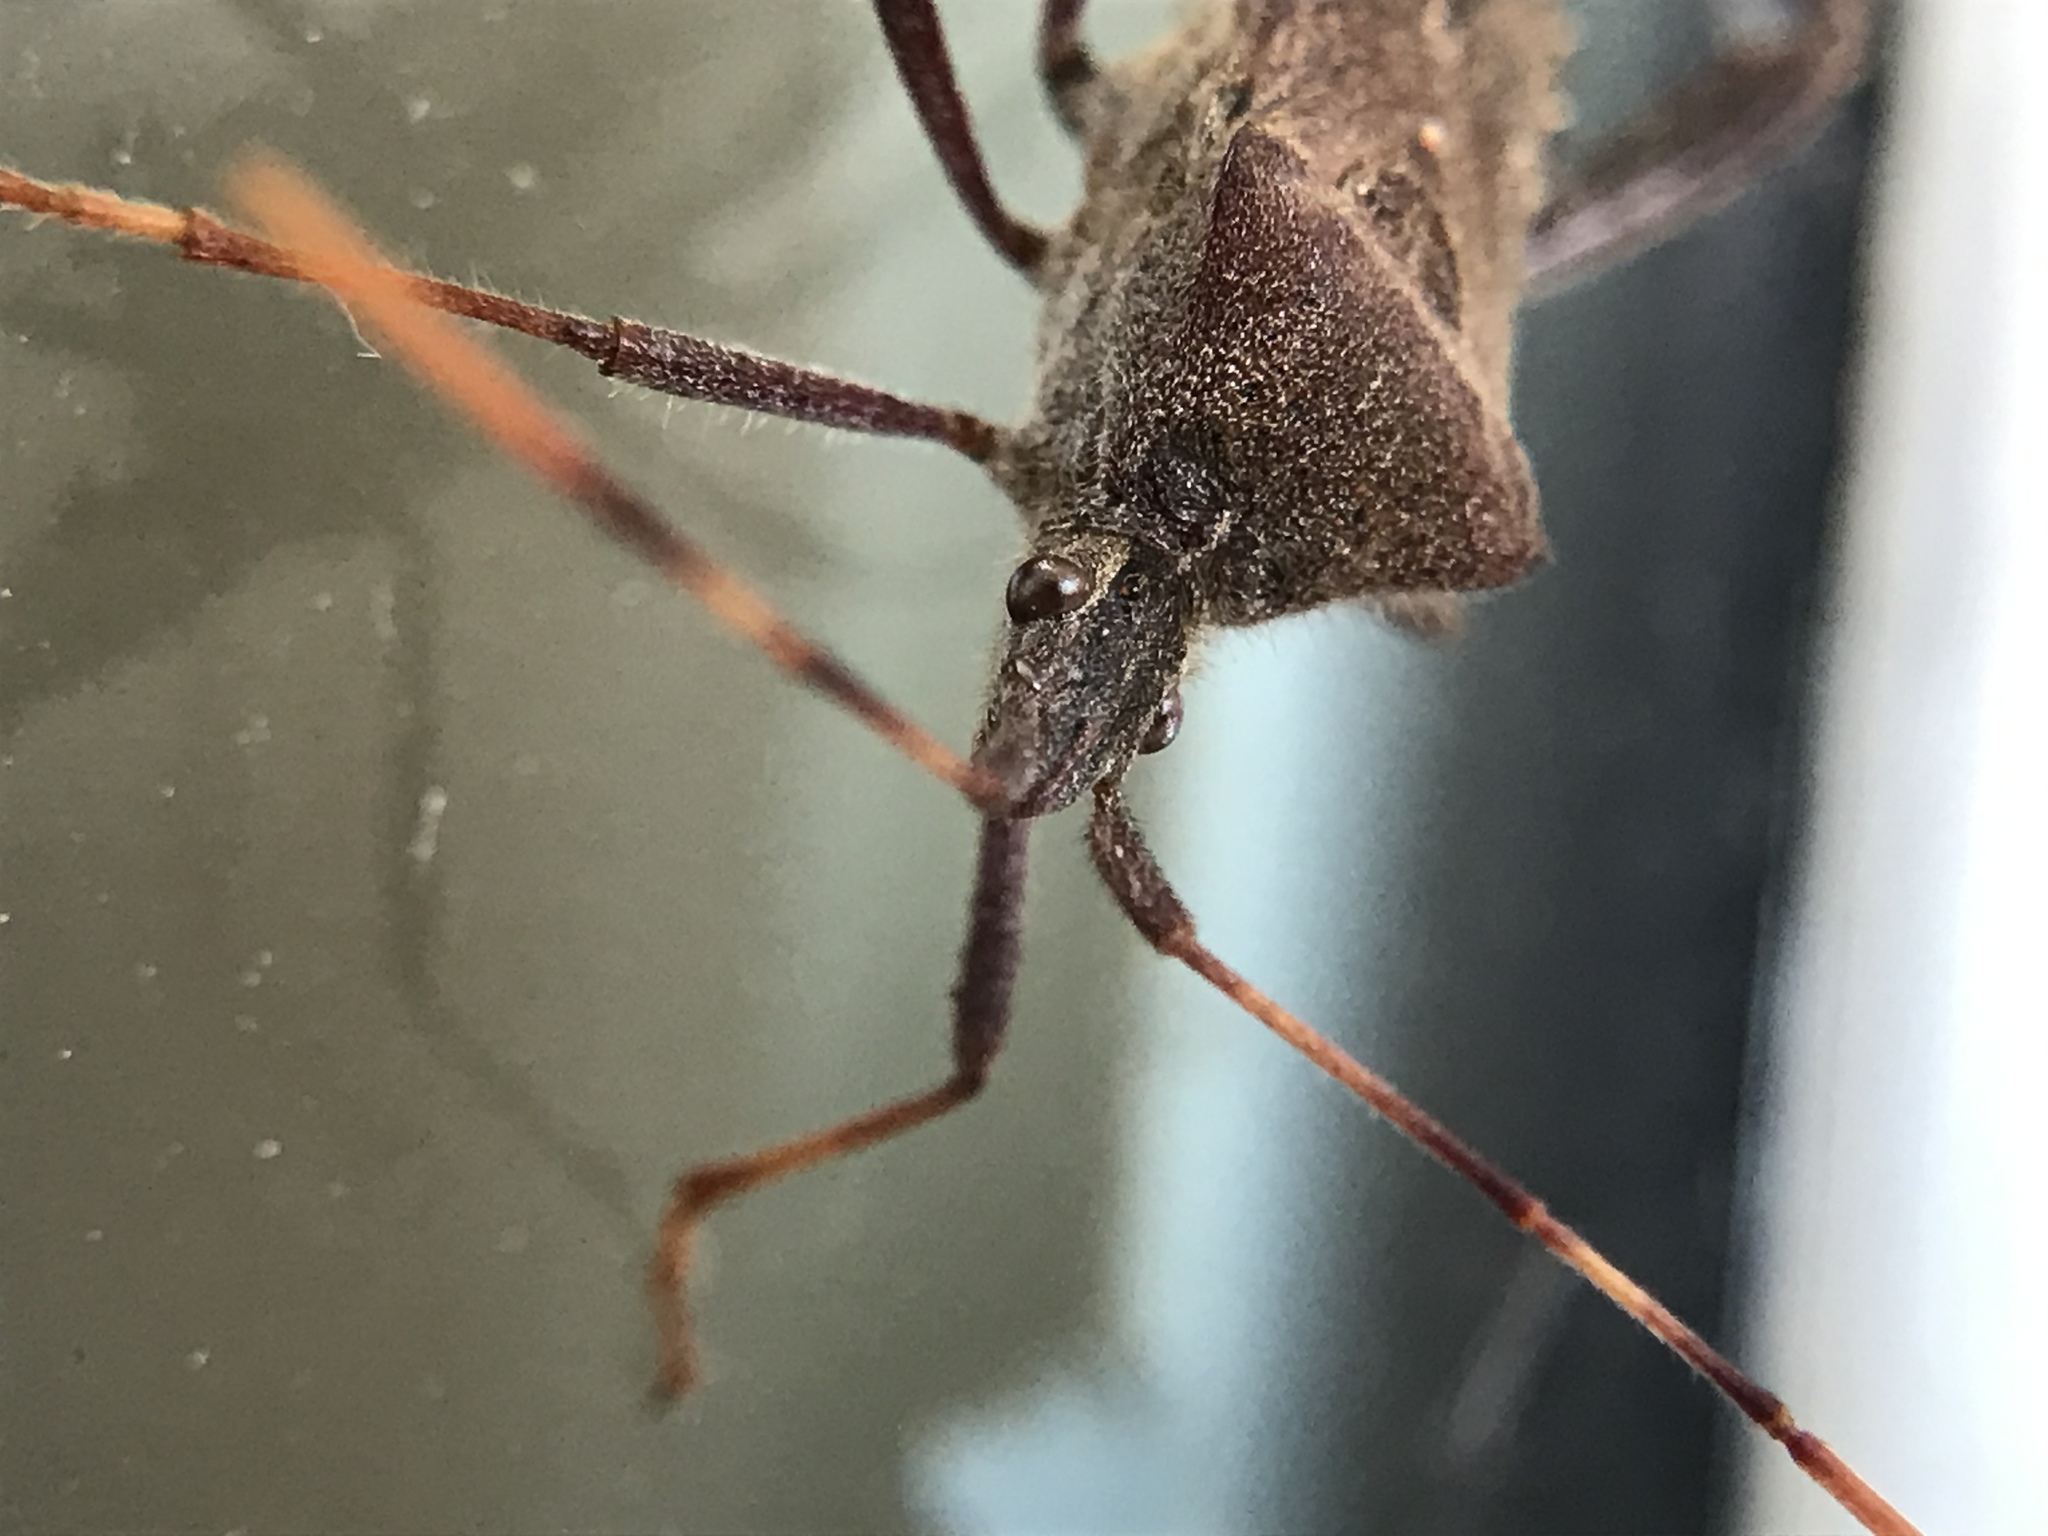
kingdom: Animalia
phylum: Arthropoda
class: Insecta
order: Hemiptera
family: Coreidae
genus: Leptoglossus
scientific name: Leptoglossus oppositus
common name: Northern leaf-footed bug
